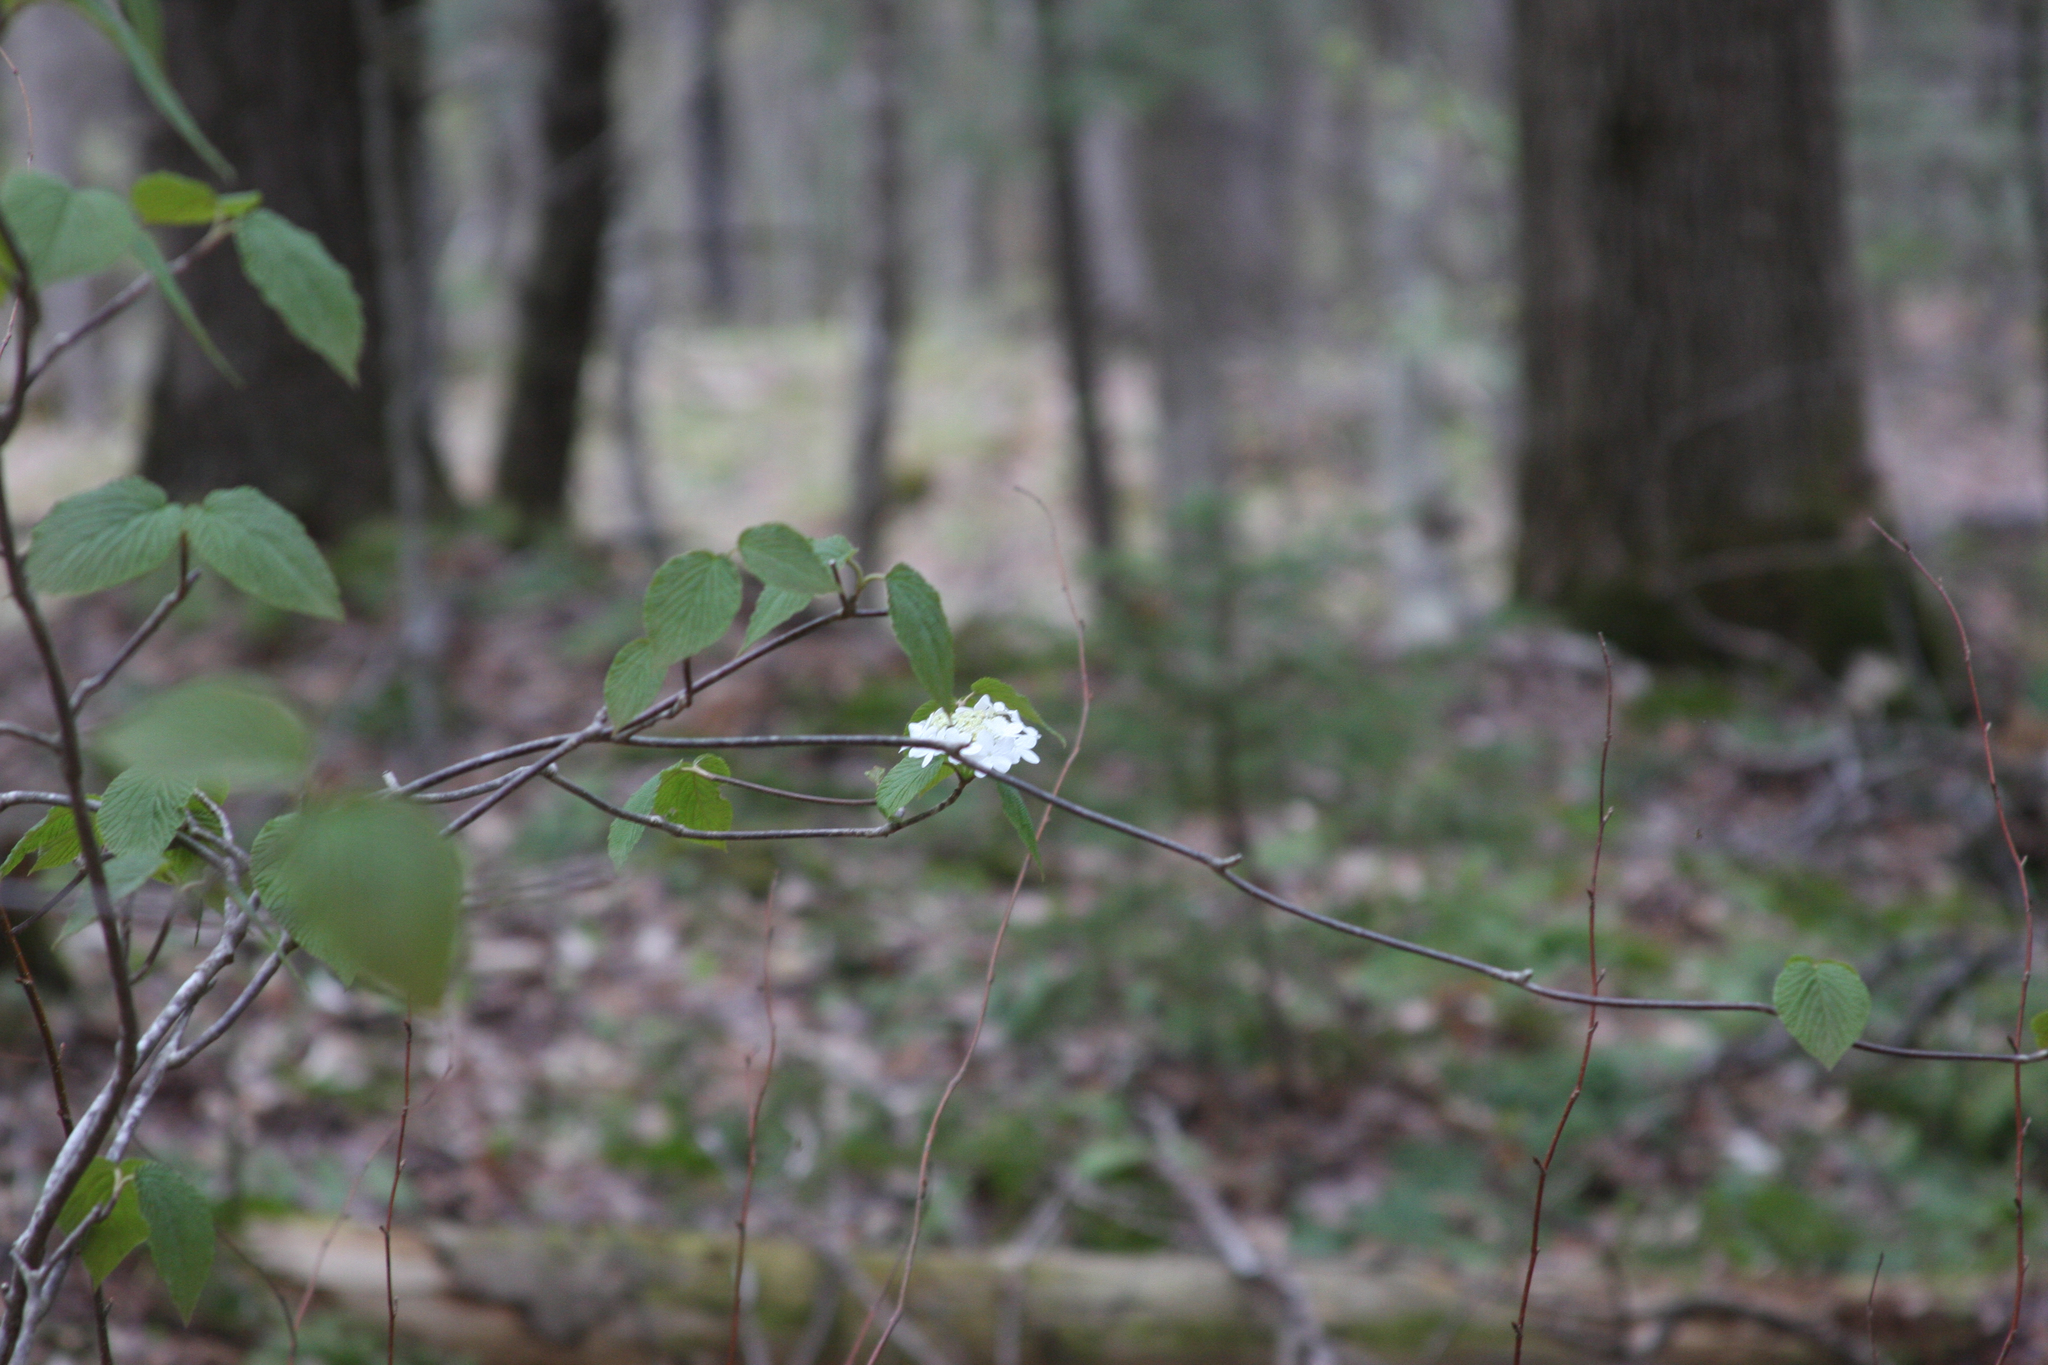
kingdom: Plantae
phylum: Tracheophyta
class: Magnoliopsida
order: Dipsacales
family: Viburnaceae
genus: Viburnum
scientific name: Viburnum lantanoides
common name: Hobblebush
